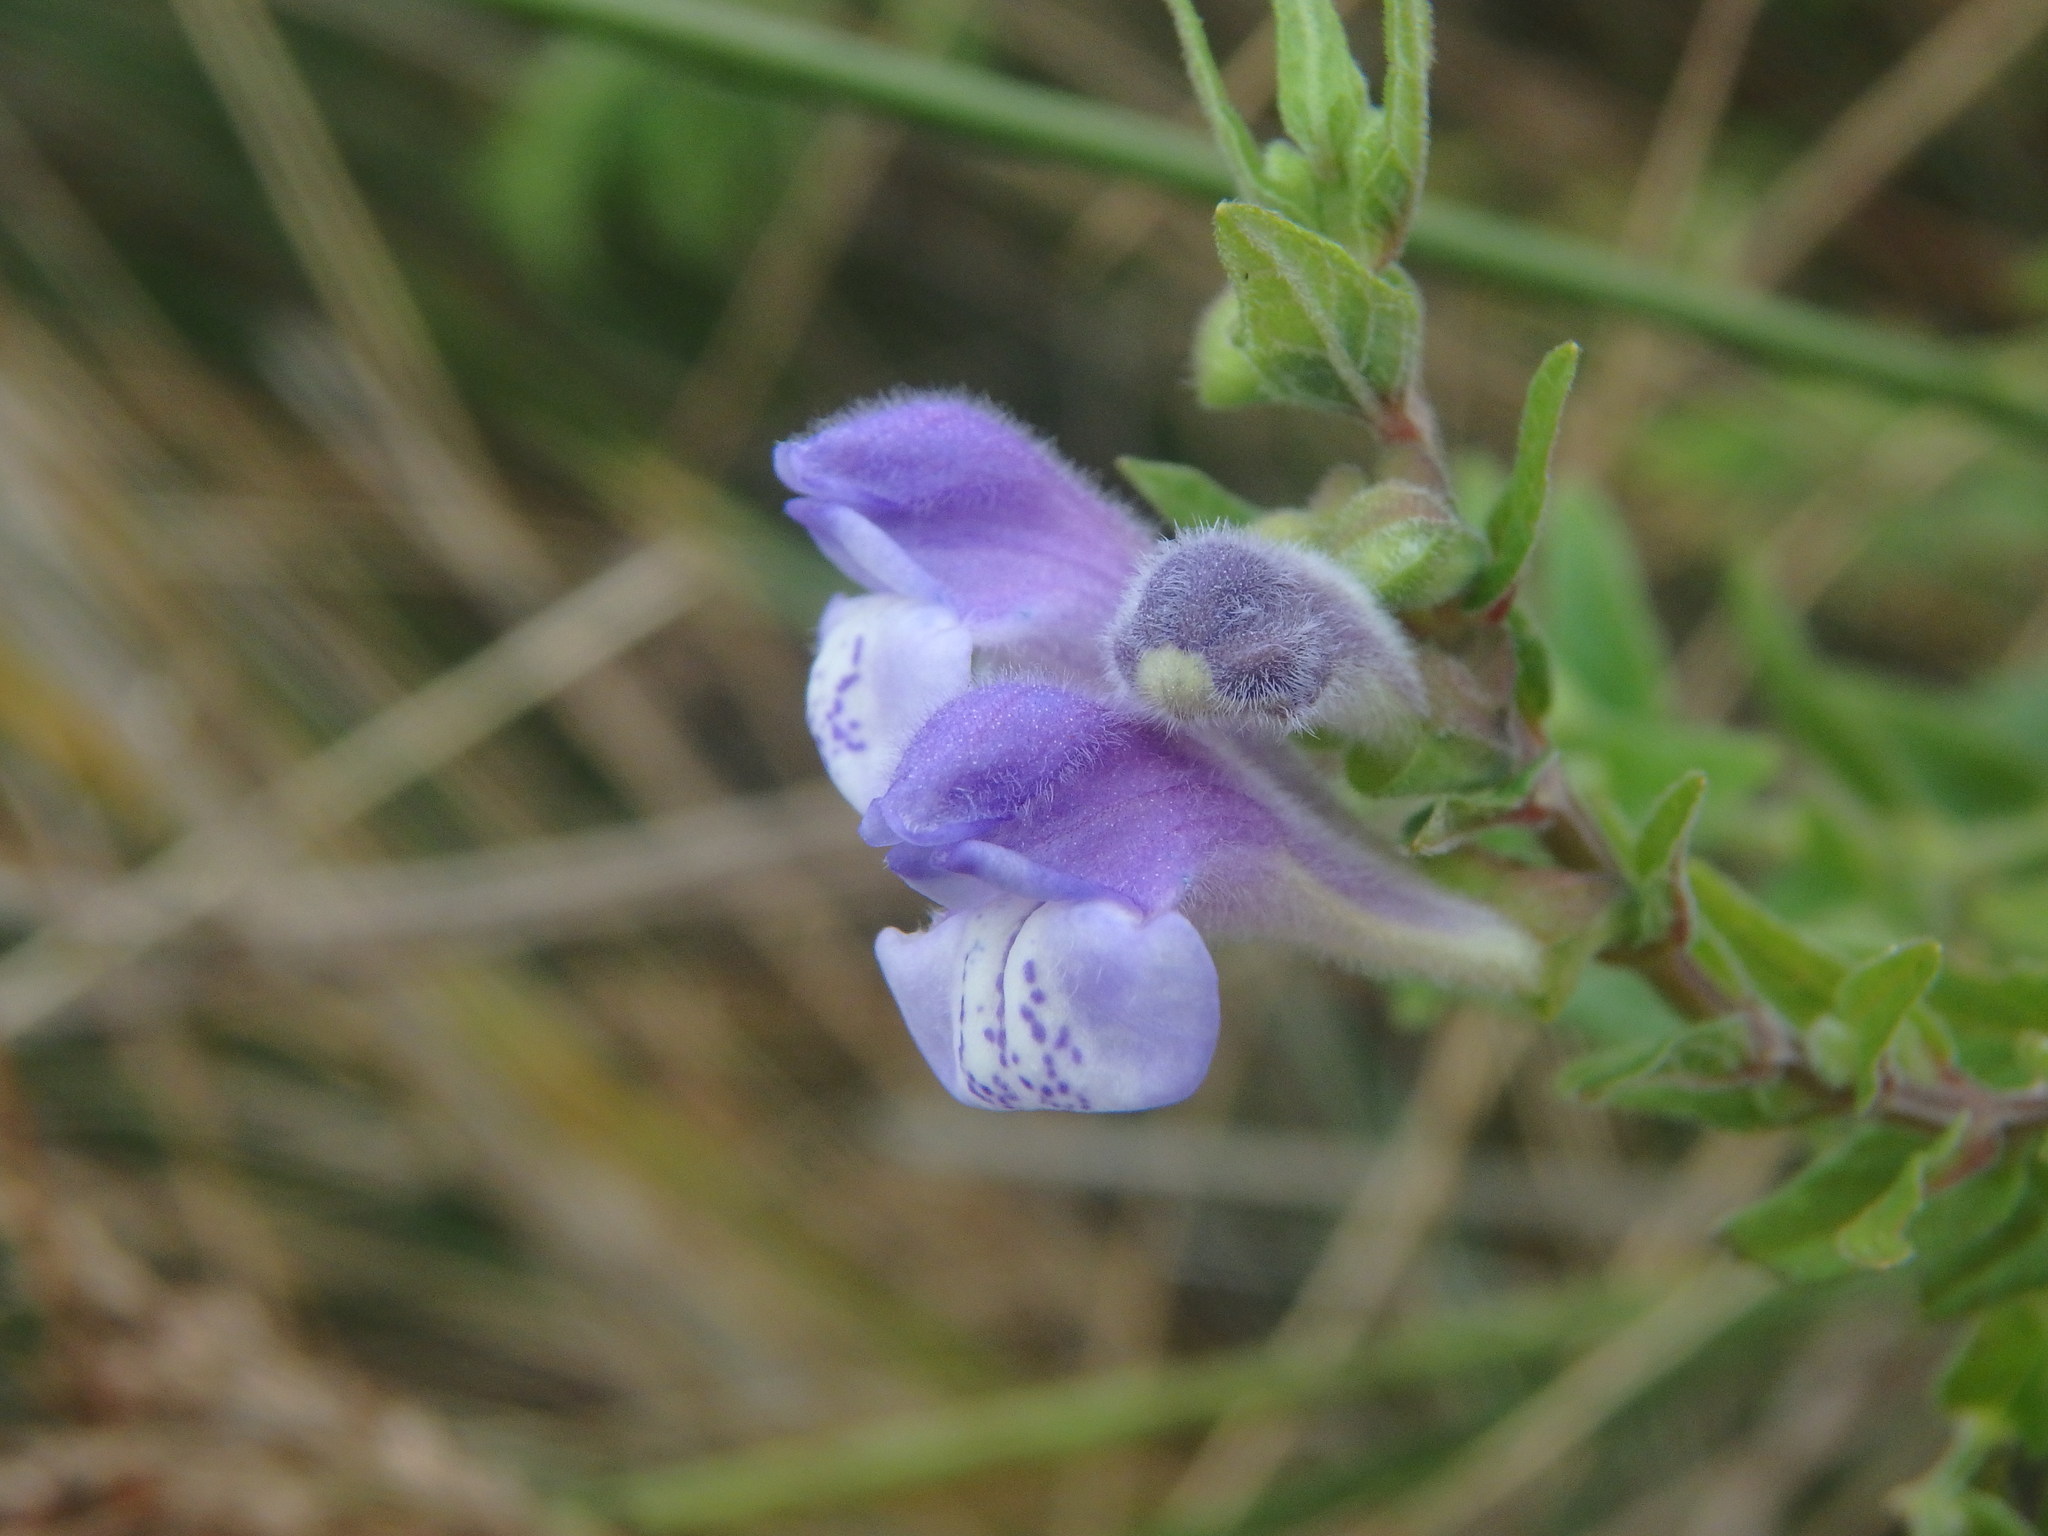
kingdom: Plantae
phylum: Tracheophyta
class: Magnoliopsida
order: Lamiales
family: Lamiaceae
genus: Scutellaria
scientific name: Scutellaria galericulata
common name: Skullcap
